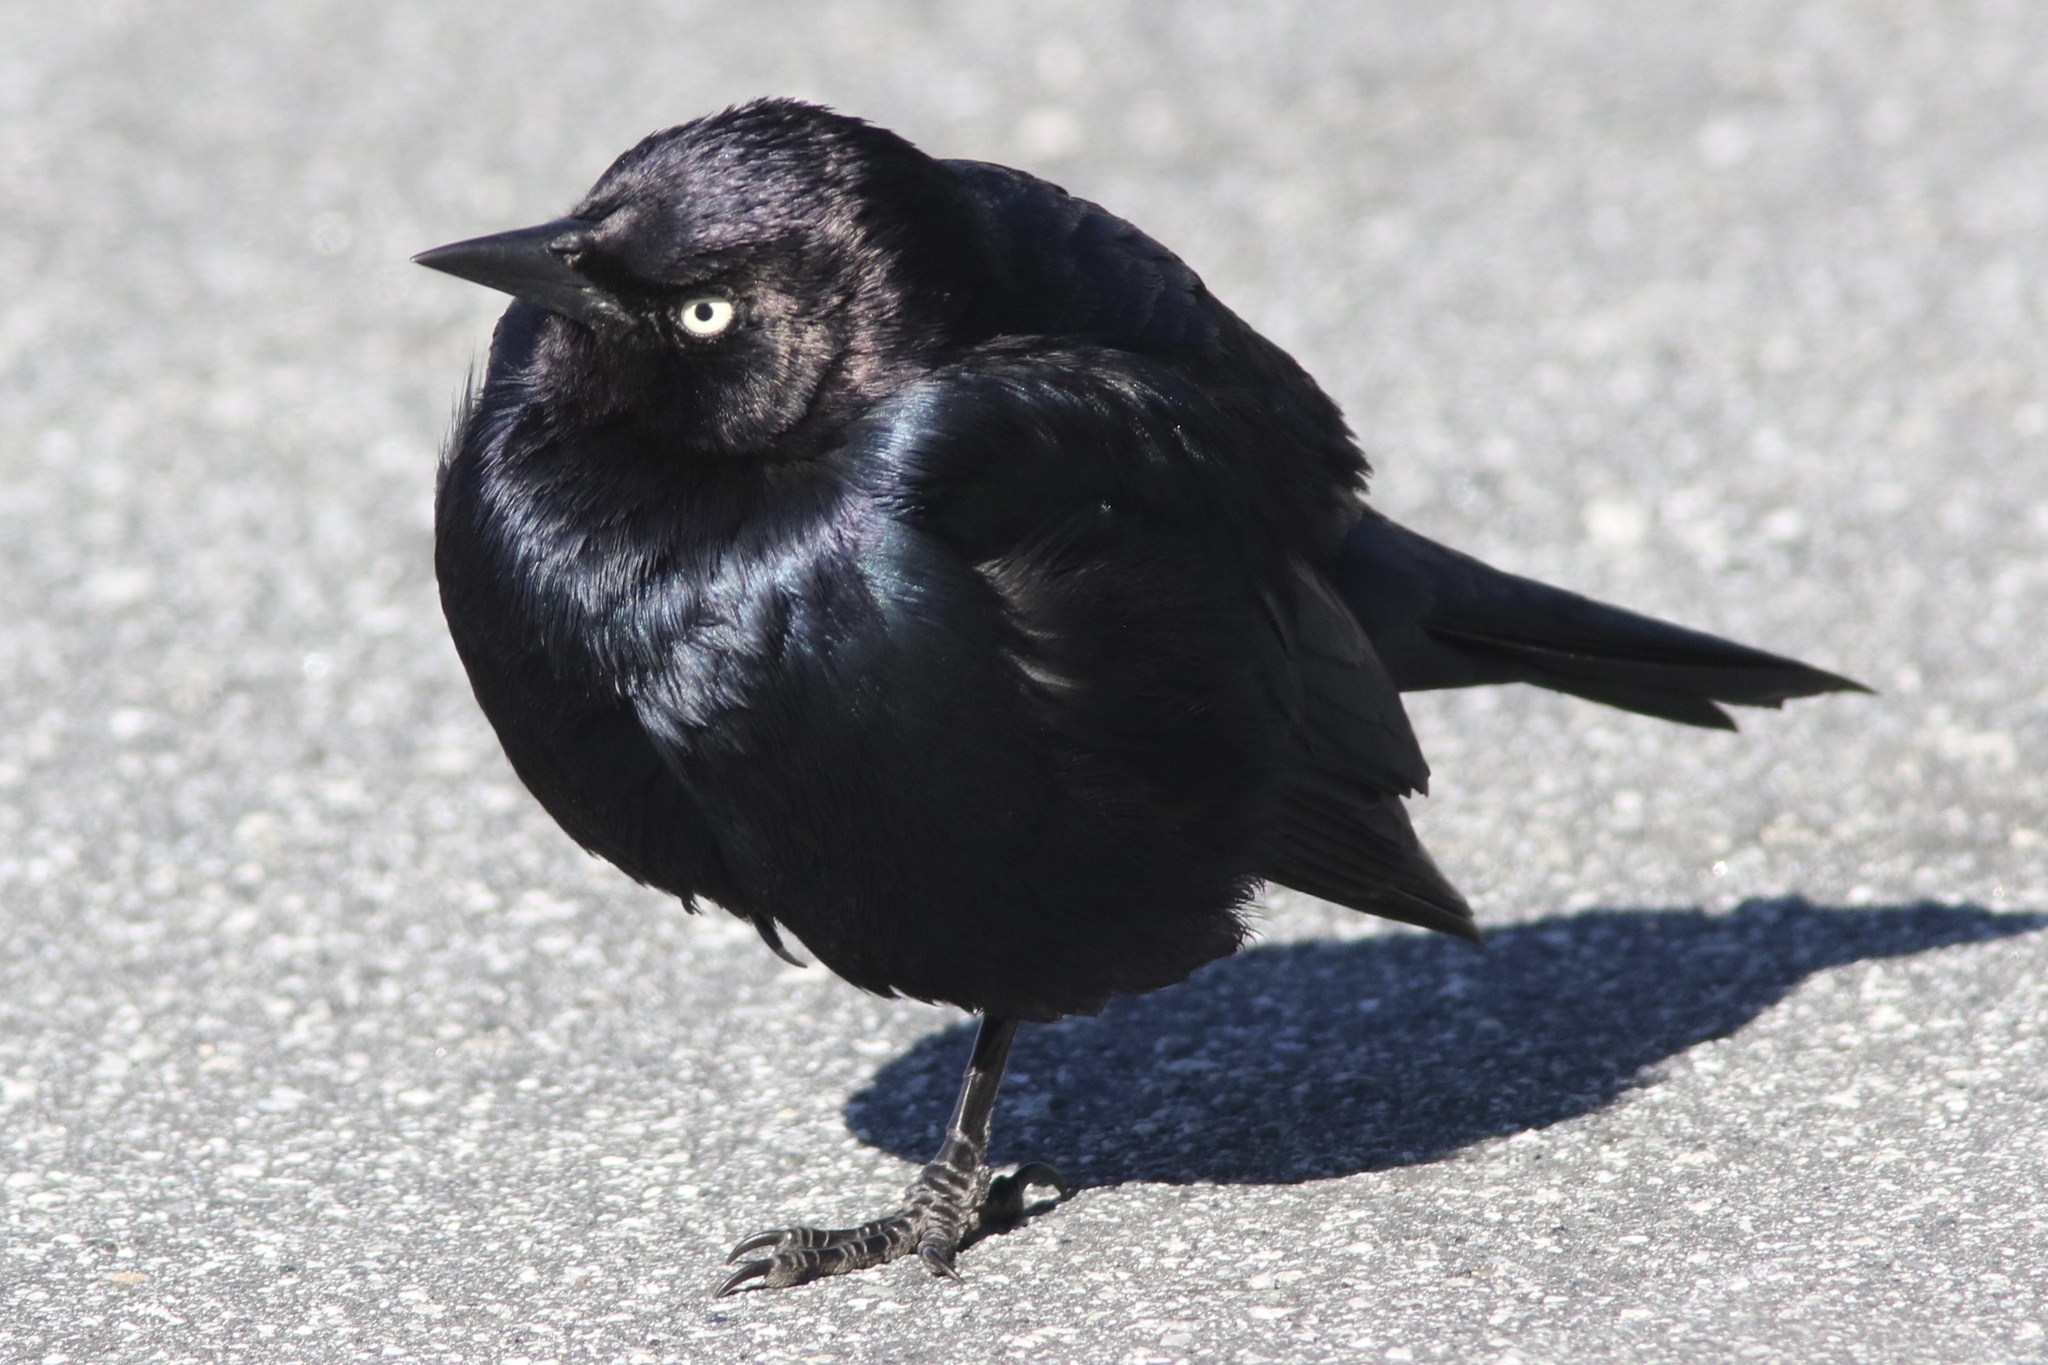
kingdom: Animalia
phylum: Chordata
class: Aves
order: Passeriformes
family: Icteridae
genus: Euphagus
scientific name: Euphagus cyanocephalus
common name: Brewer's blackbird
